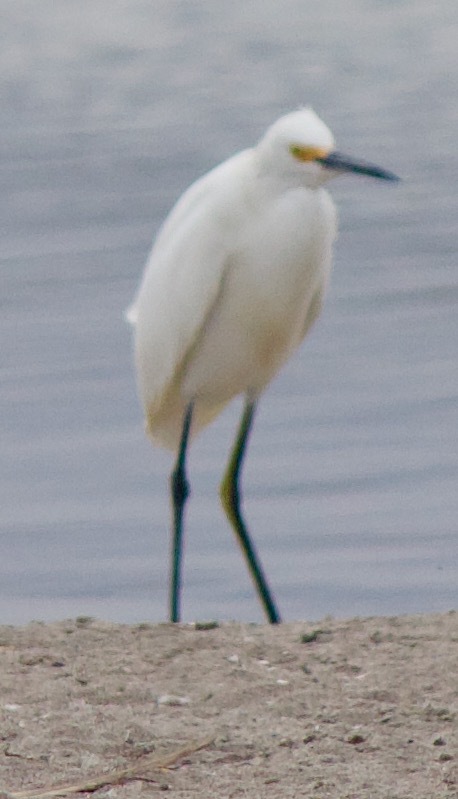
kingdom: Animalia
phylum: Chordata
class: Aves
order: Pelecaniformes
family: Ardeidae
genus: Egretta
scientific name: Egretta thula
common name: Snowy egret
